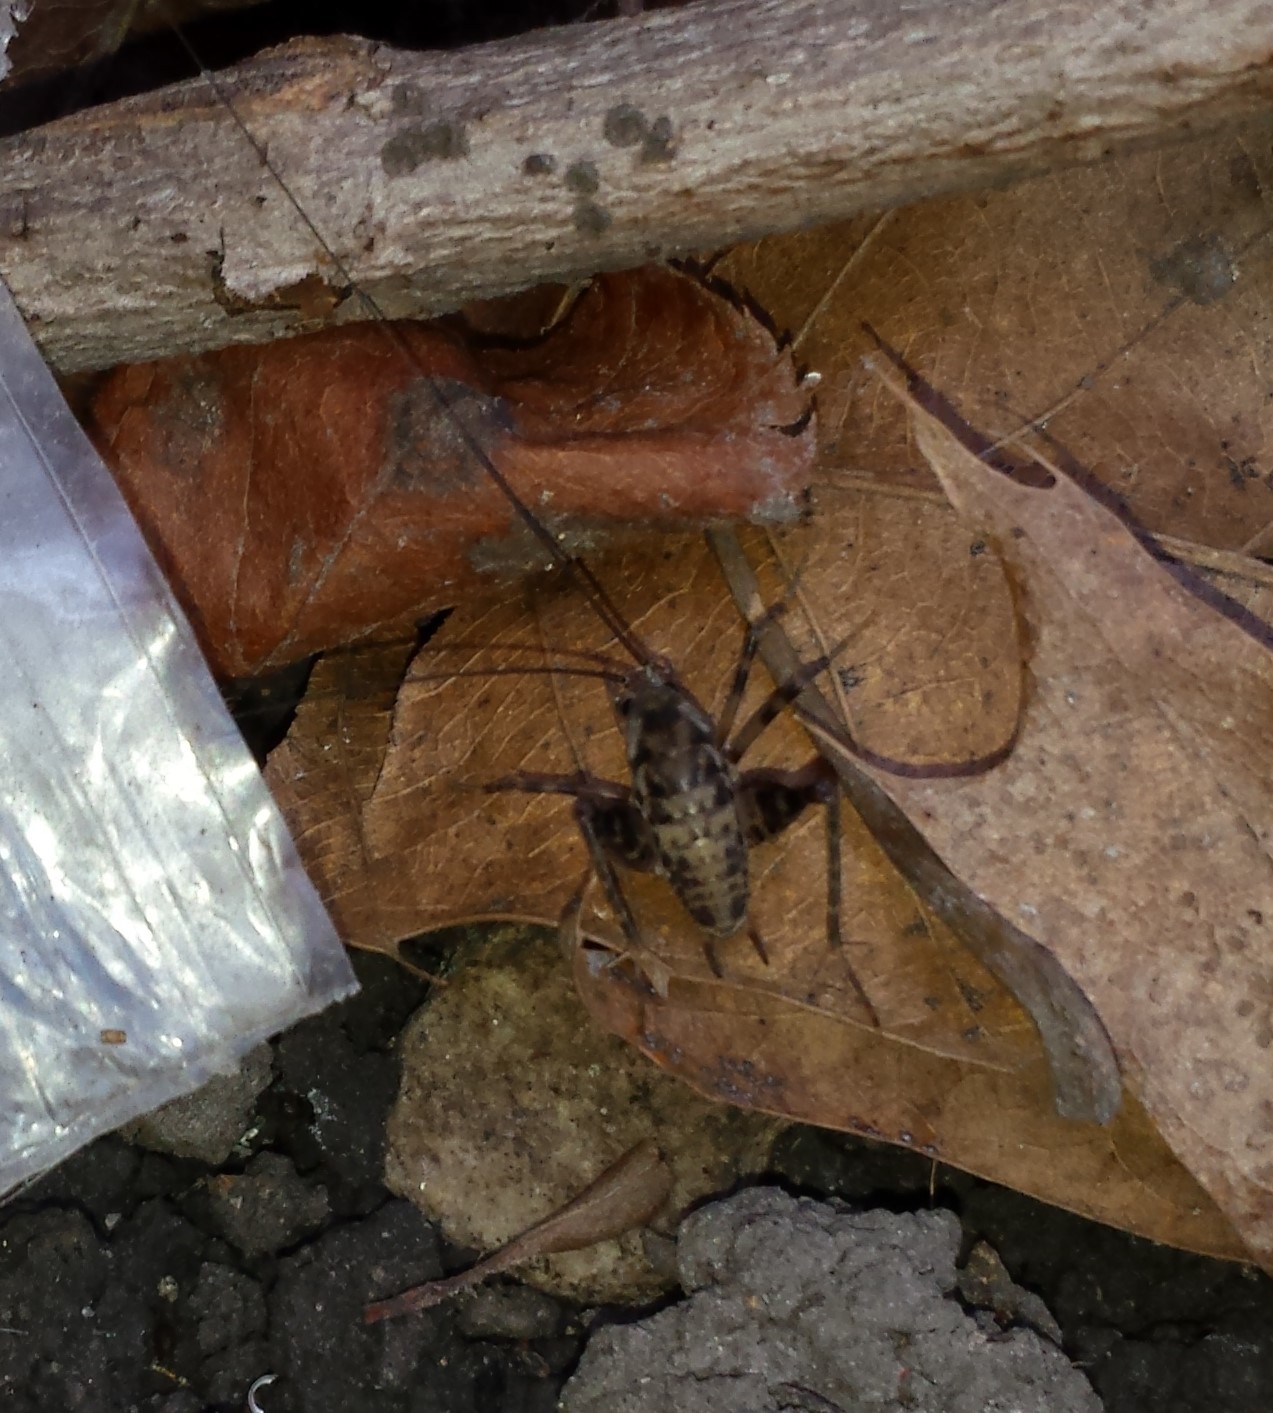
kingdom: Animalia
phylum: Arthropoda
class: Insecta
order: Orthoptera
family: Rhaphidophoridae
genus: Tachycines
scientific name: Tachycines asynamorus
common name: Greenhouse camel cricket
